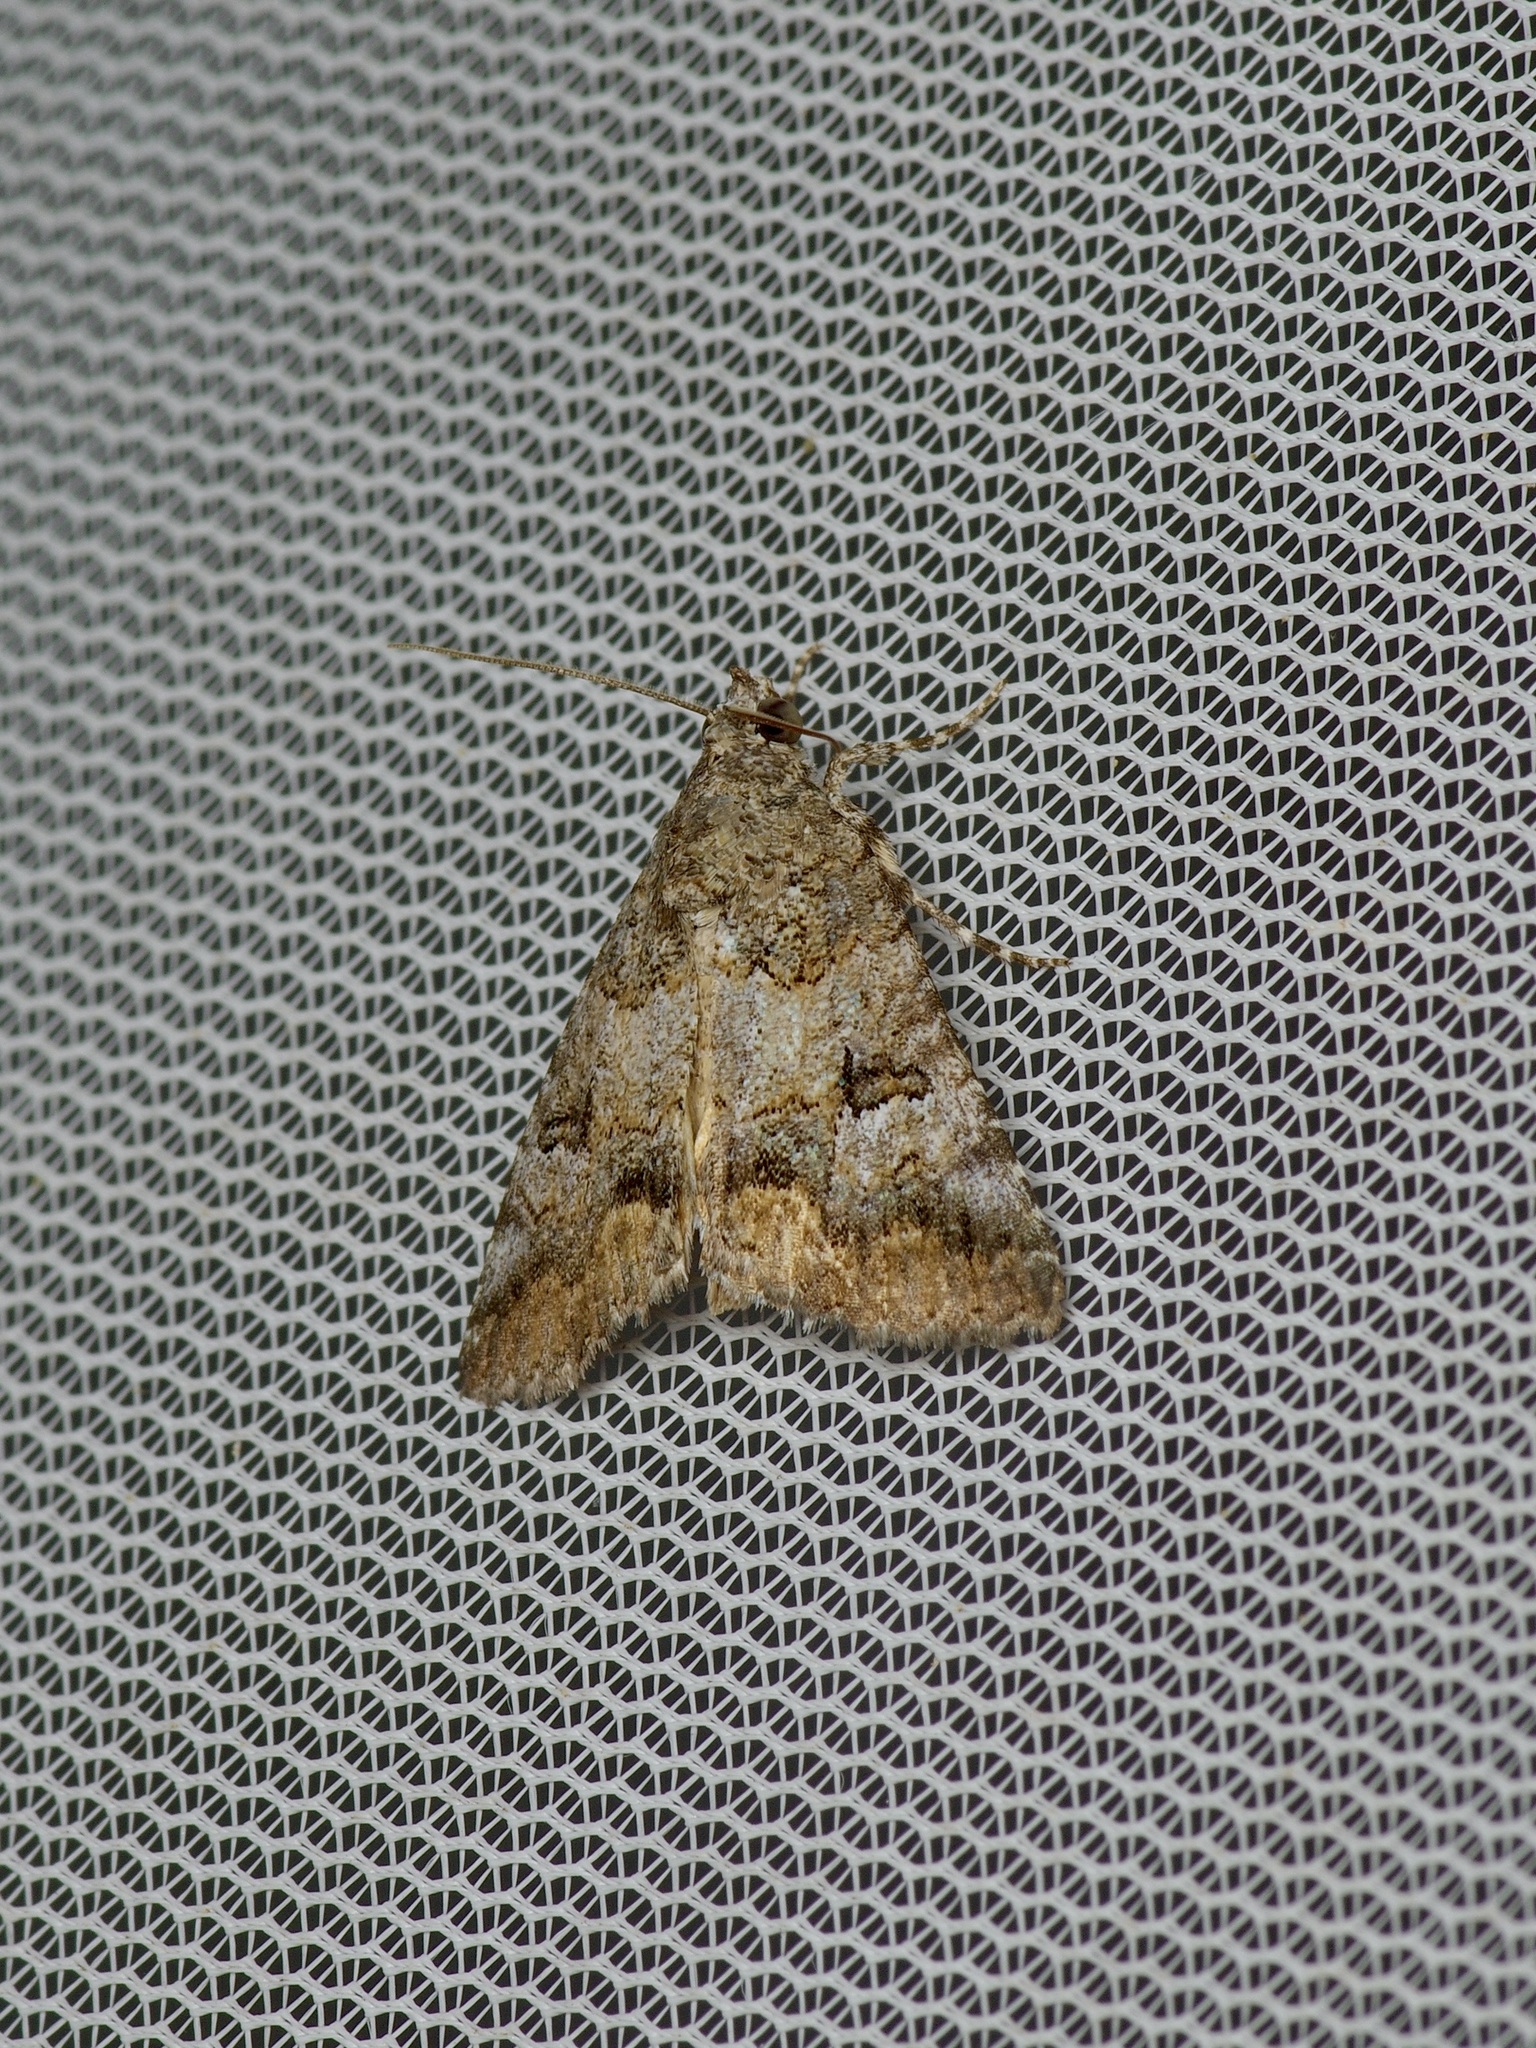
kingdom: Animalia
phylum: Arthropoda
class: Insecta
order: Lepidoptera
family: Erebidae
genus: Eubolina
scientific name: Eubolina impartialis
